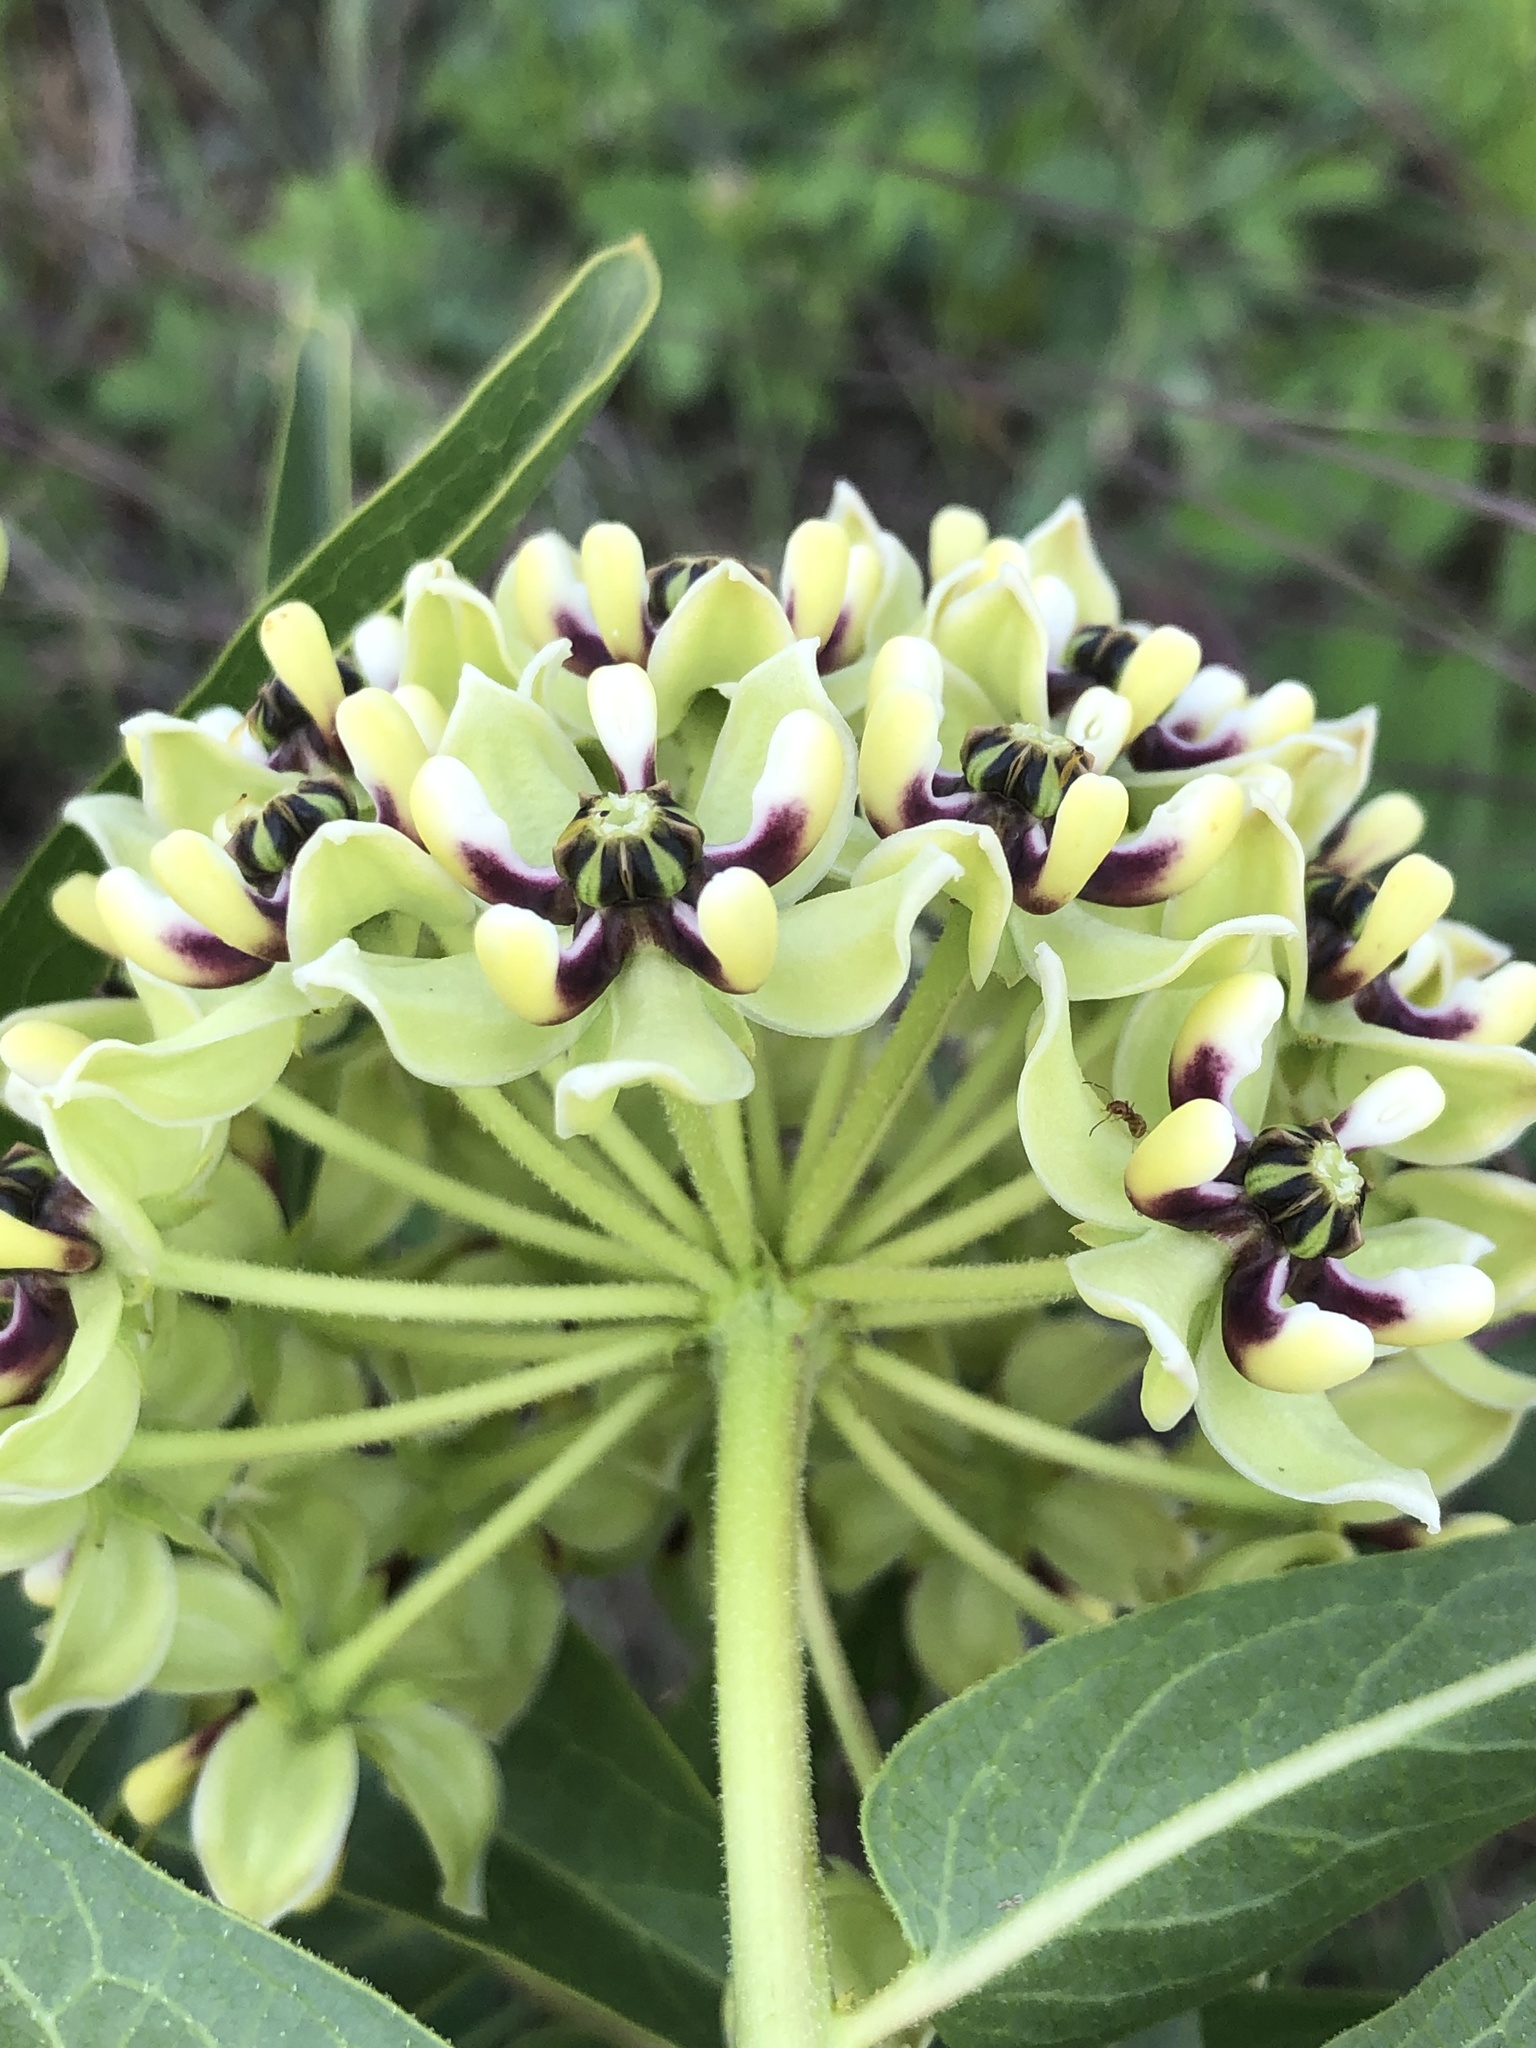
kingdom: Plantae
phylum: Tracheophyta
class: Magnoliopsida
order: Gentianales
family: Apocynaceae
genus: Asclepias
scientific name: Asclepias asperula
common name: Antelope horns
